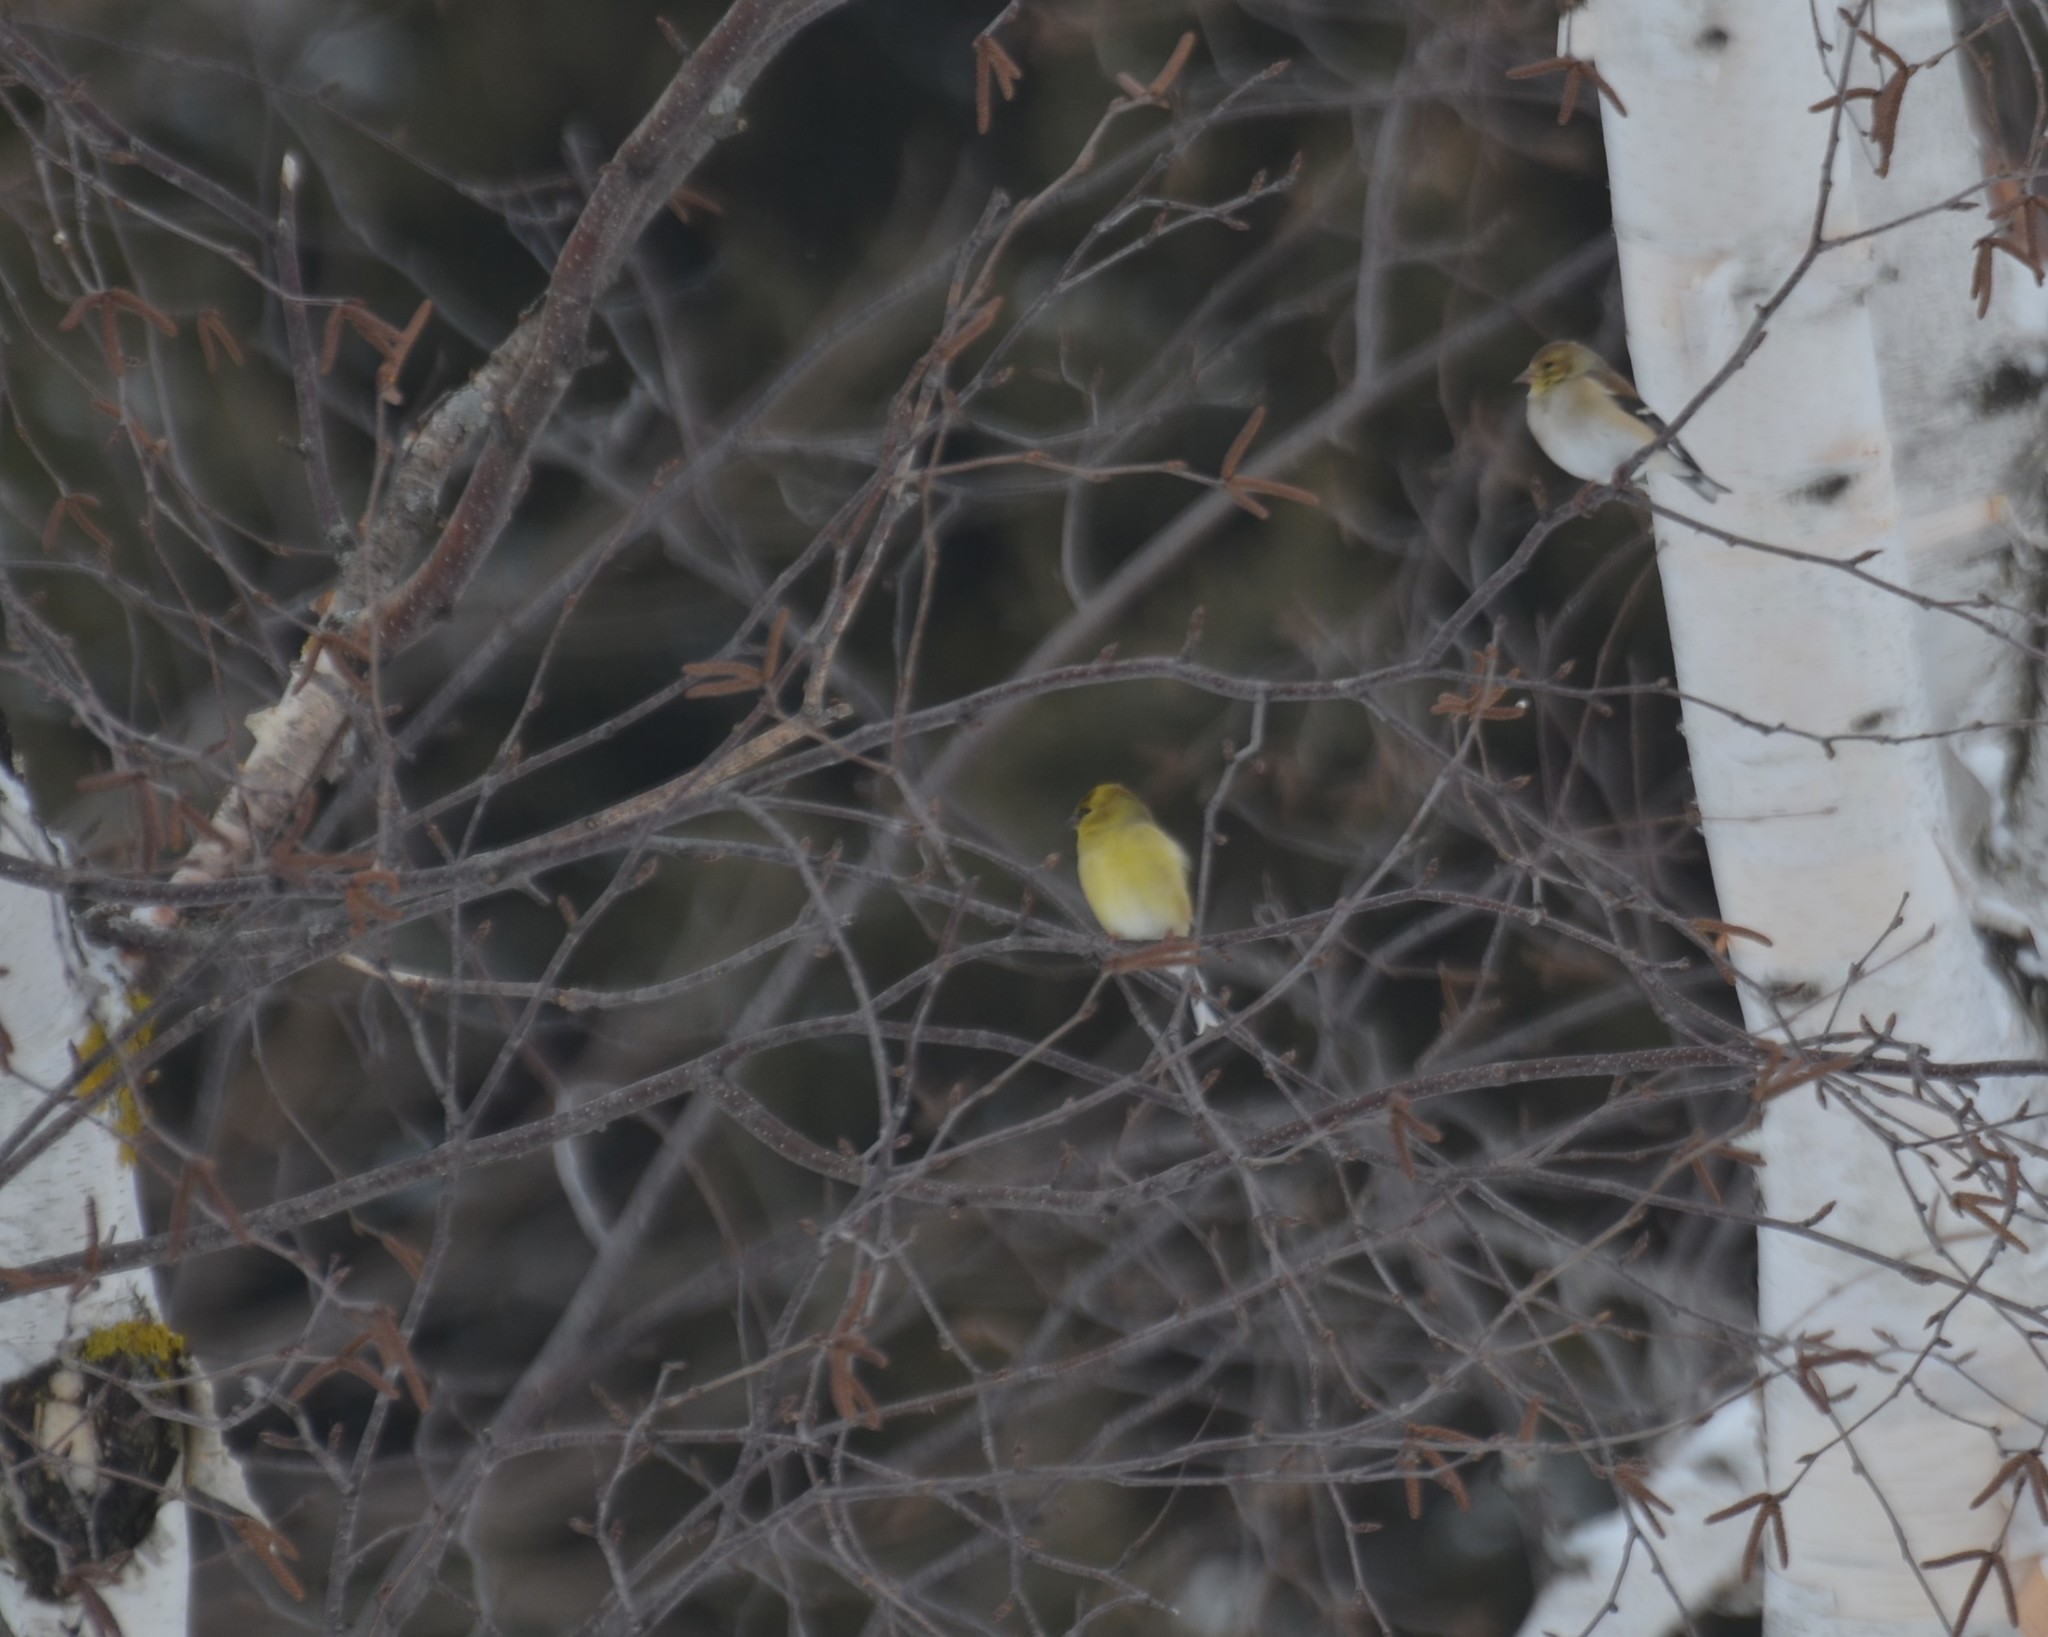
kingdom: Animalia
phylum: Chordata
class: Aves
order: Passeriformes
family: Fringillidae
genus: Spinus
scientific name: Spinus tristis
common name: American goldfinch
